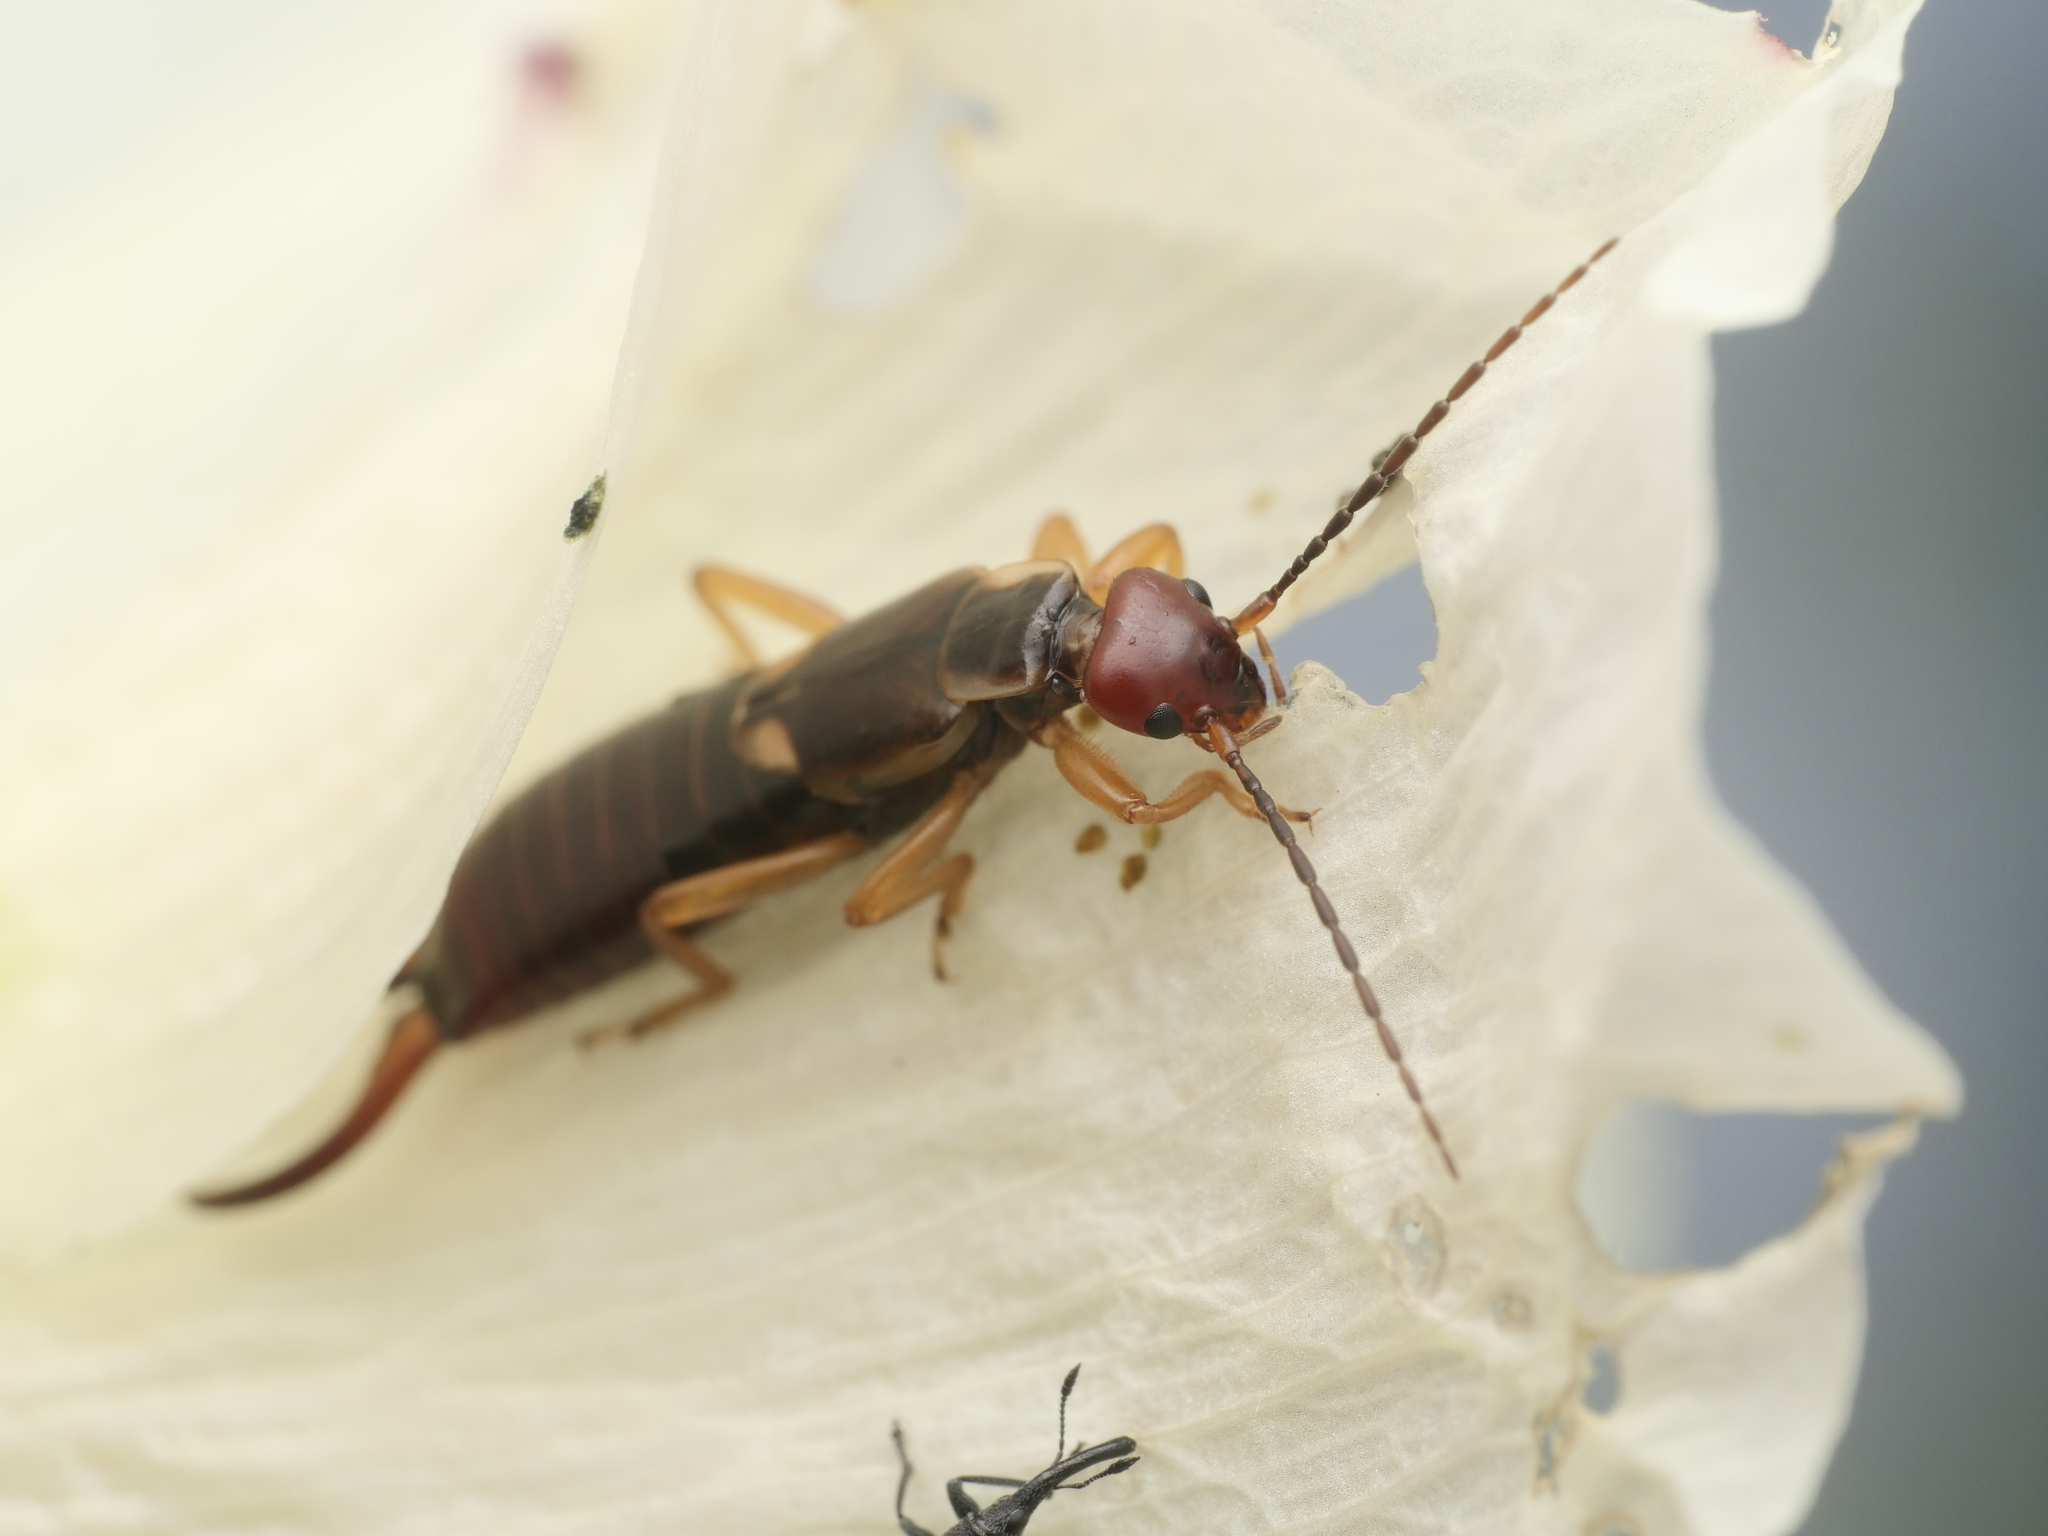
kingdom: Animalia
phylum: Arthropoda
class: Insecta
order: Dermaptera
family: Forficulidae
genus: Forficula
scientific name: Forficula
